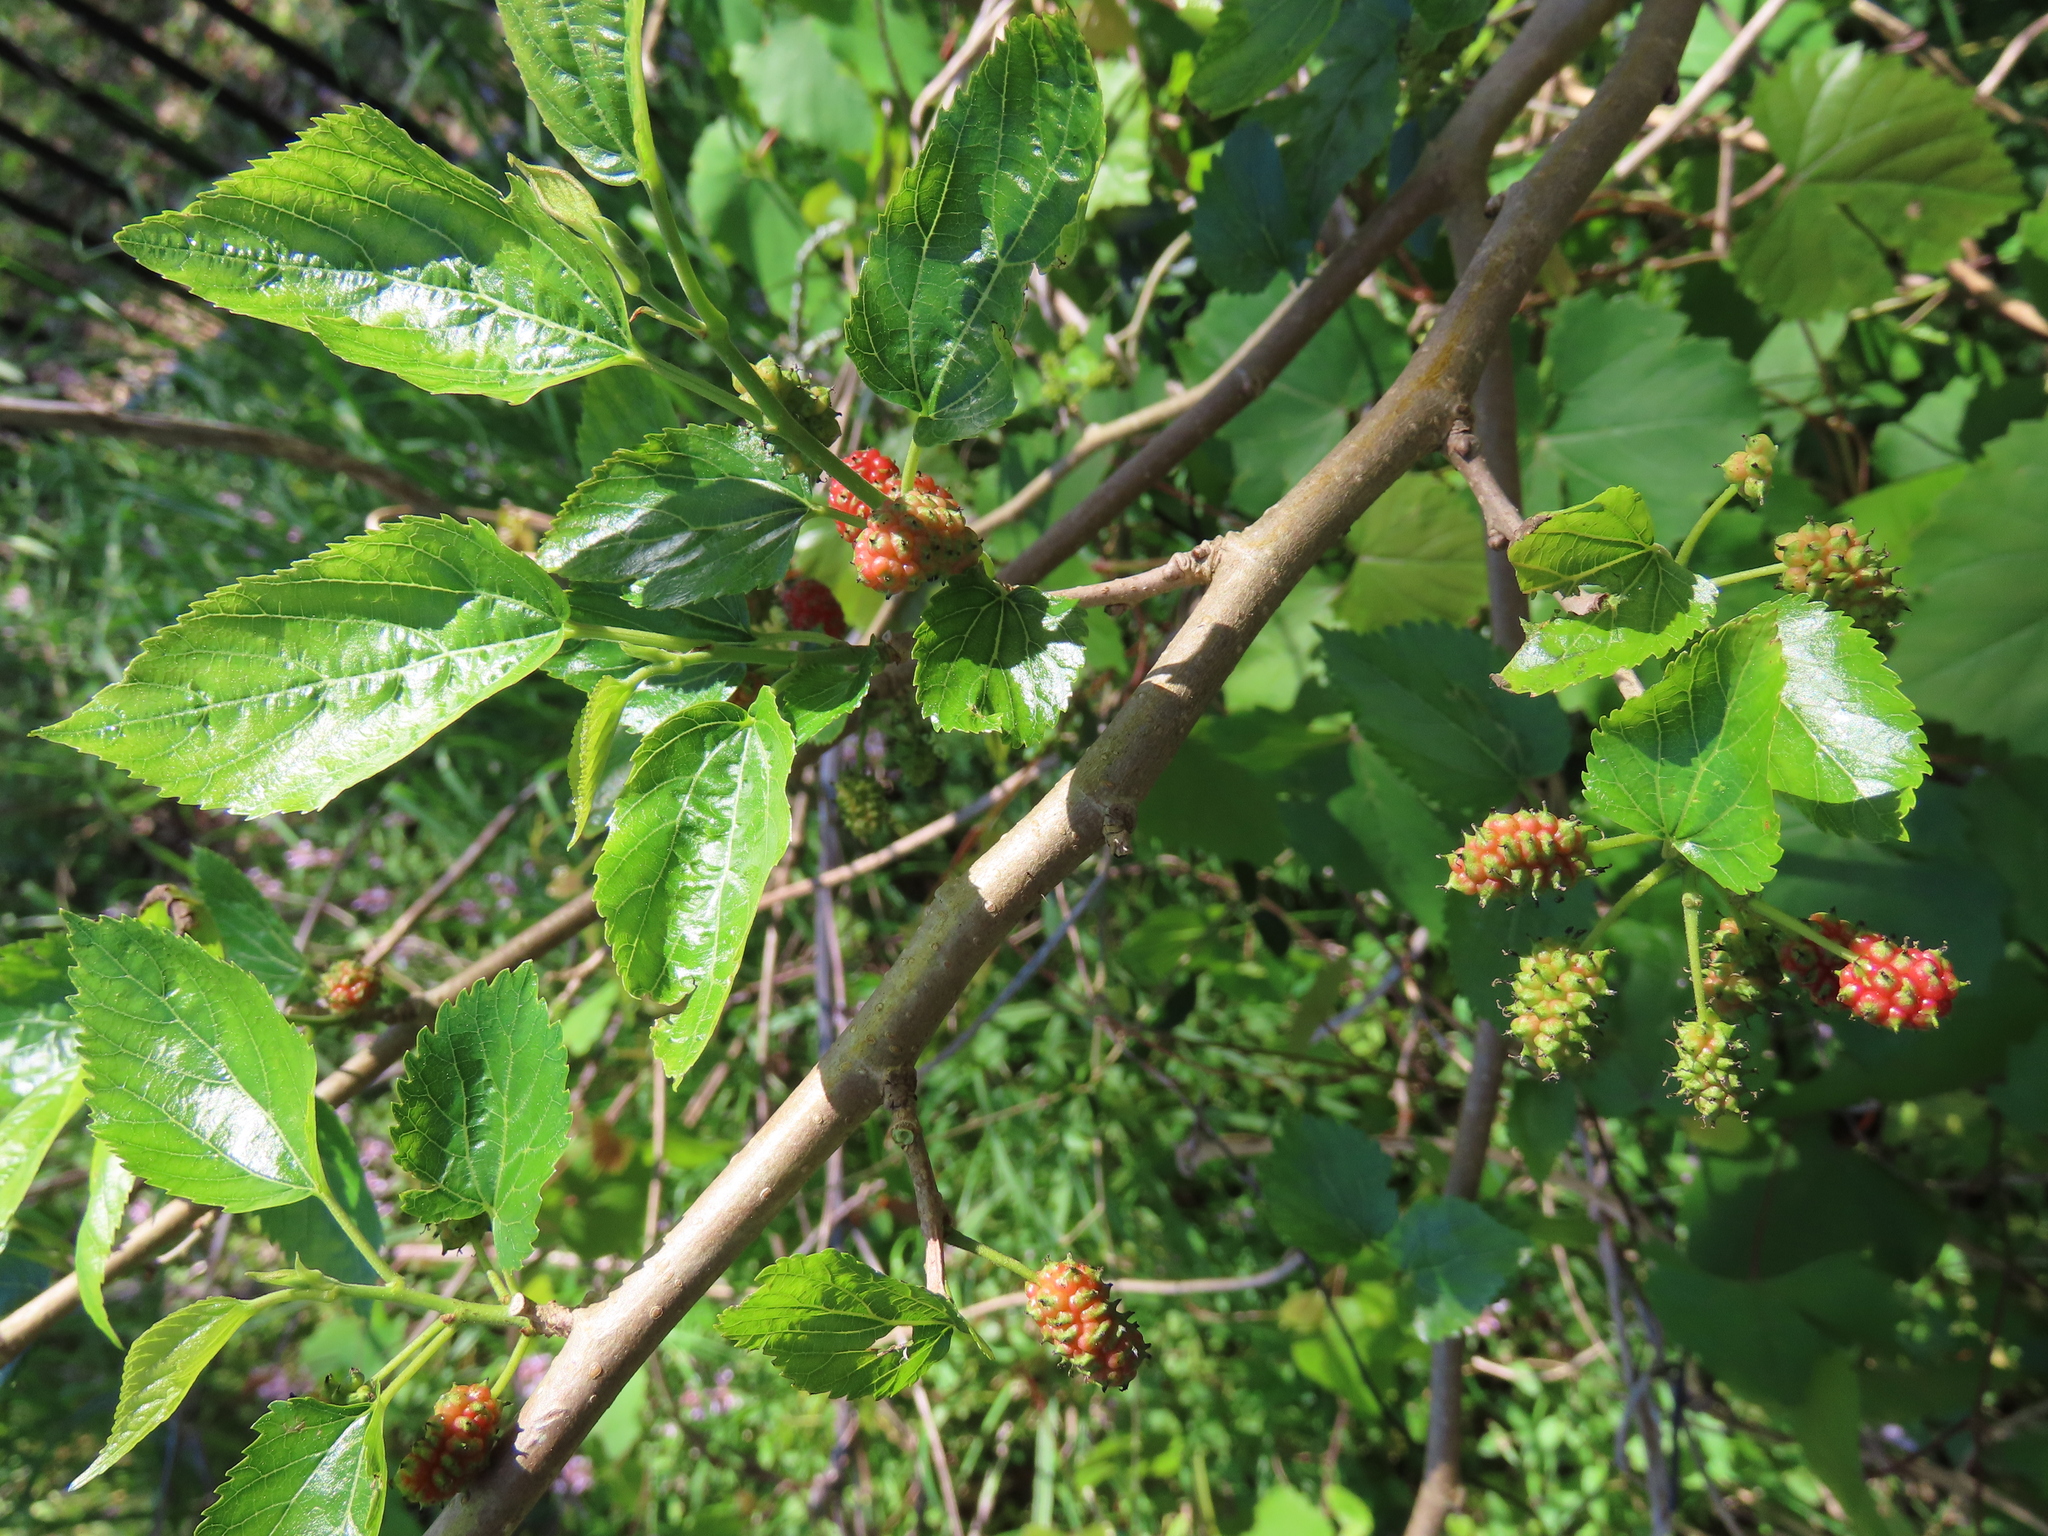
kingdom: Plantae
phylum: Tracheophyta
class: Magnoliopsida
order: Rosales
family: Moraceae
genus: Morus
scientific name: Morus alba
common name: White mulberry
